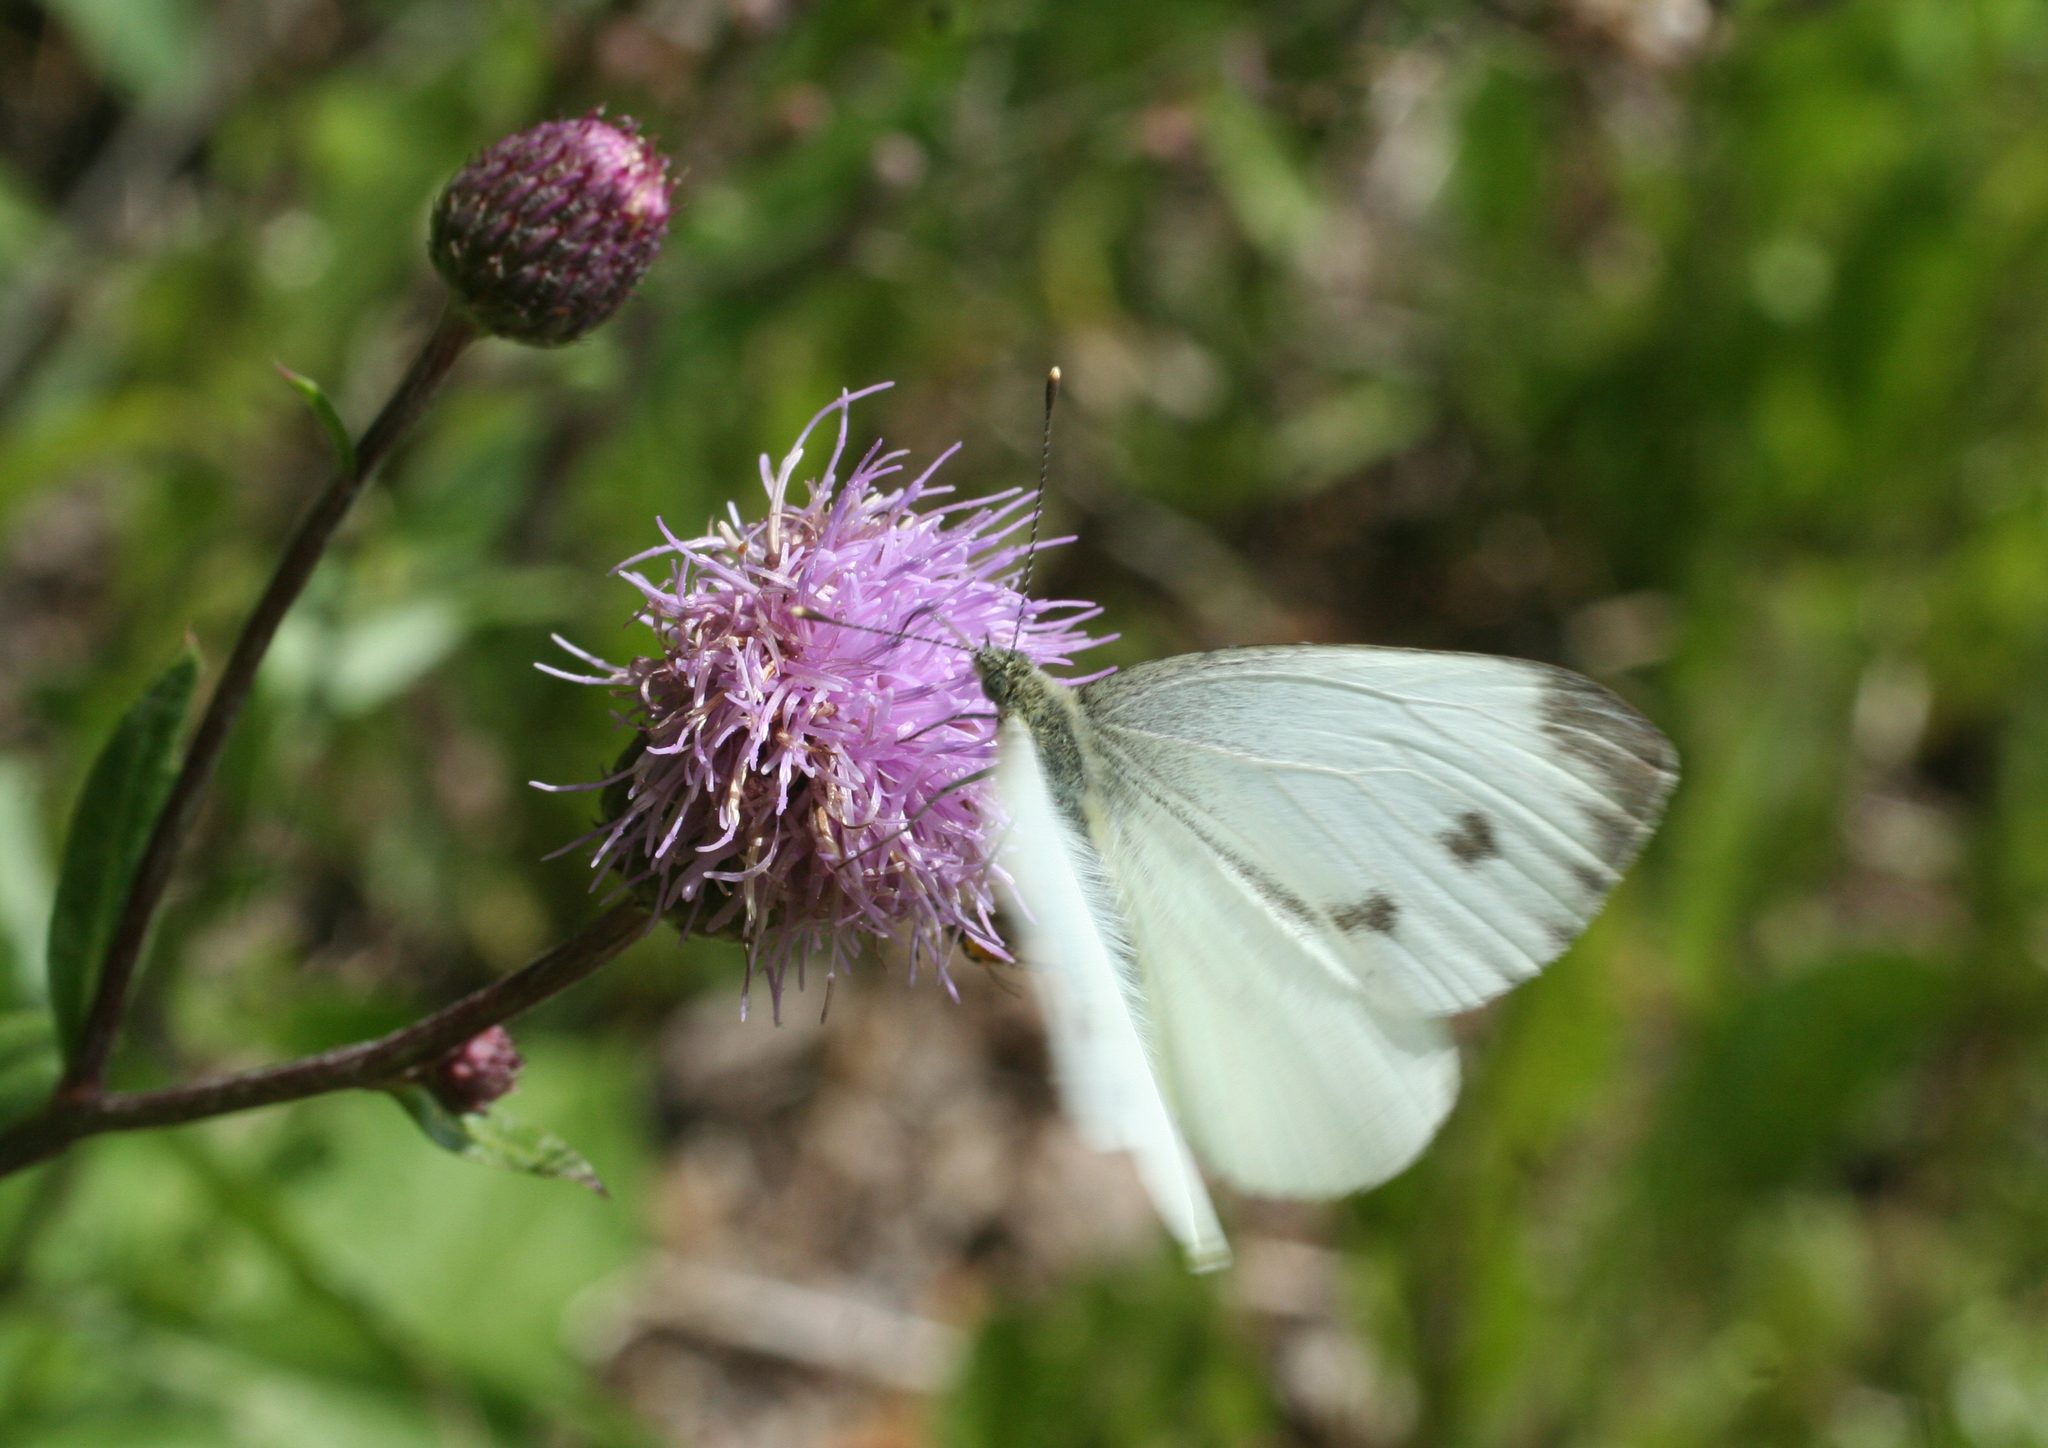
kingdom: Animalia
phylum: Arthropoda
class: Insecta
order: Lepidoptera
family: Pieridae
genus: Pieris
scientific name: Pieris napi
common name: Green-veined white
